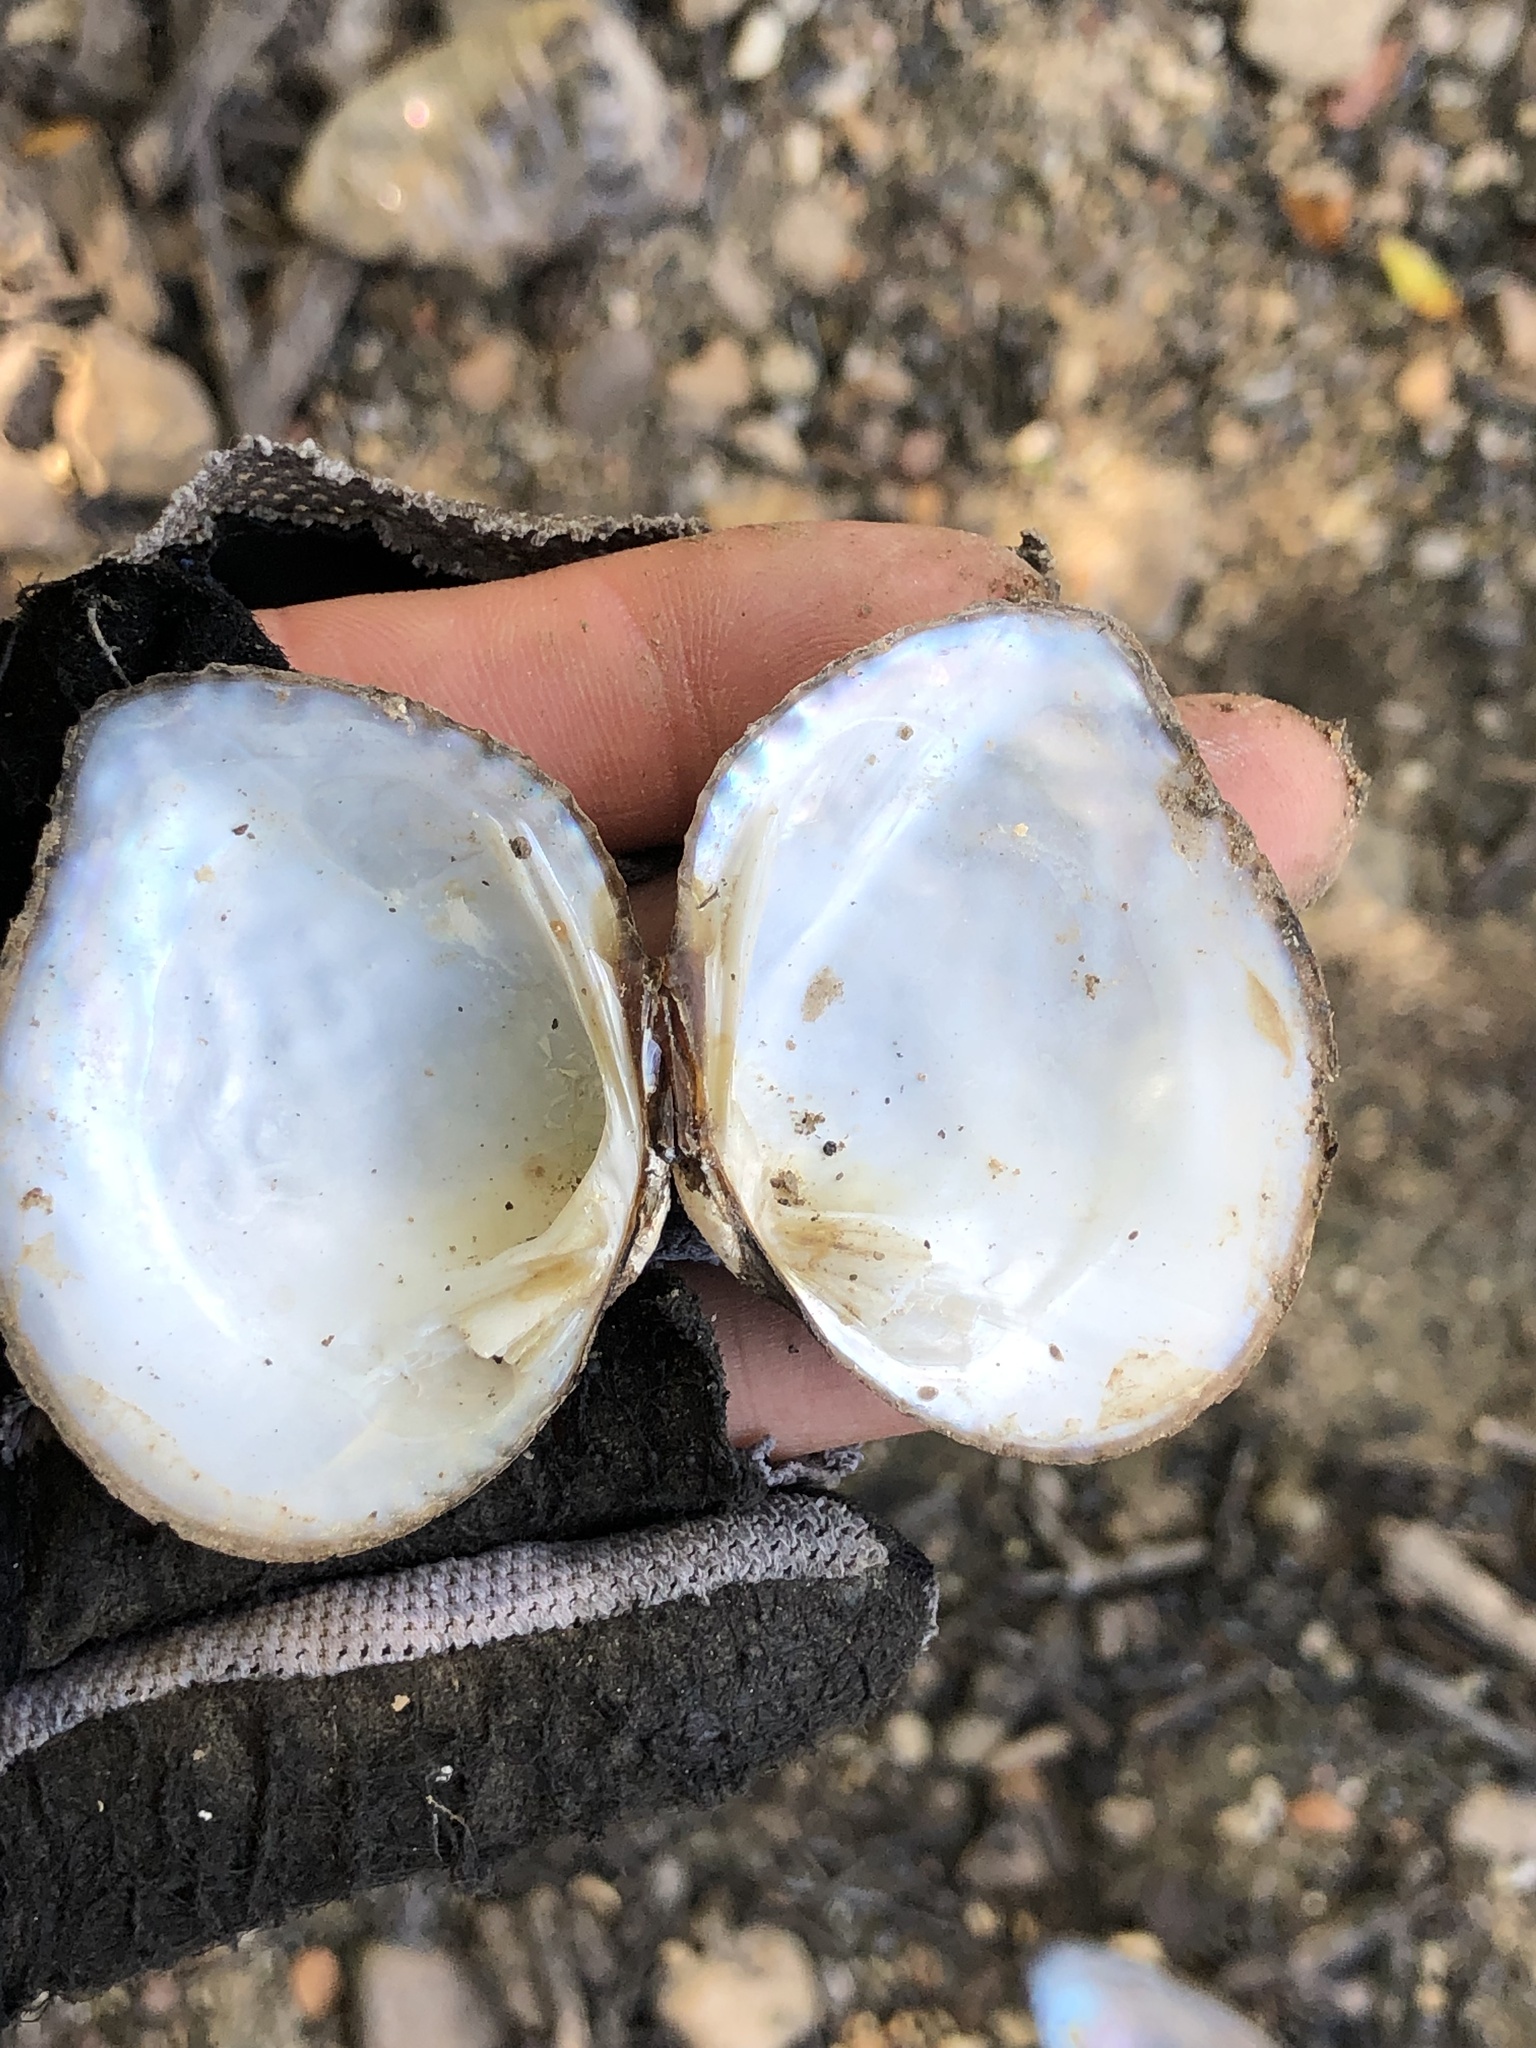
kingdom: Animalia
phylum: Mollusca
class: Bivalvia
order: Unionida
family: Unionidae
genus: Quadrula
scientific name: Quadrula quadrula
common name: Mapleleaf
